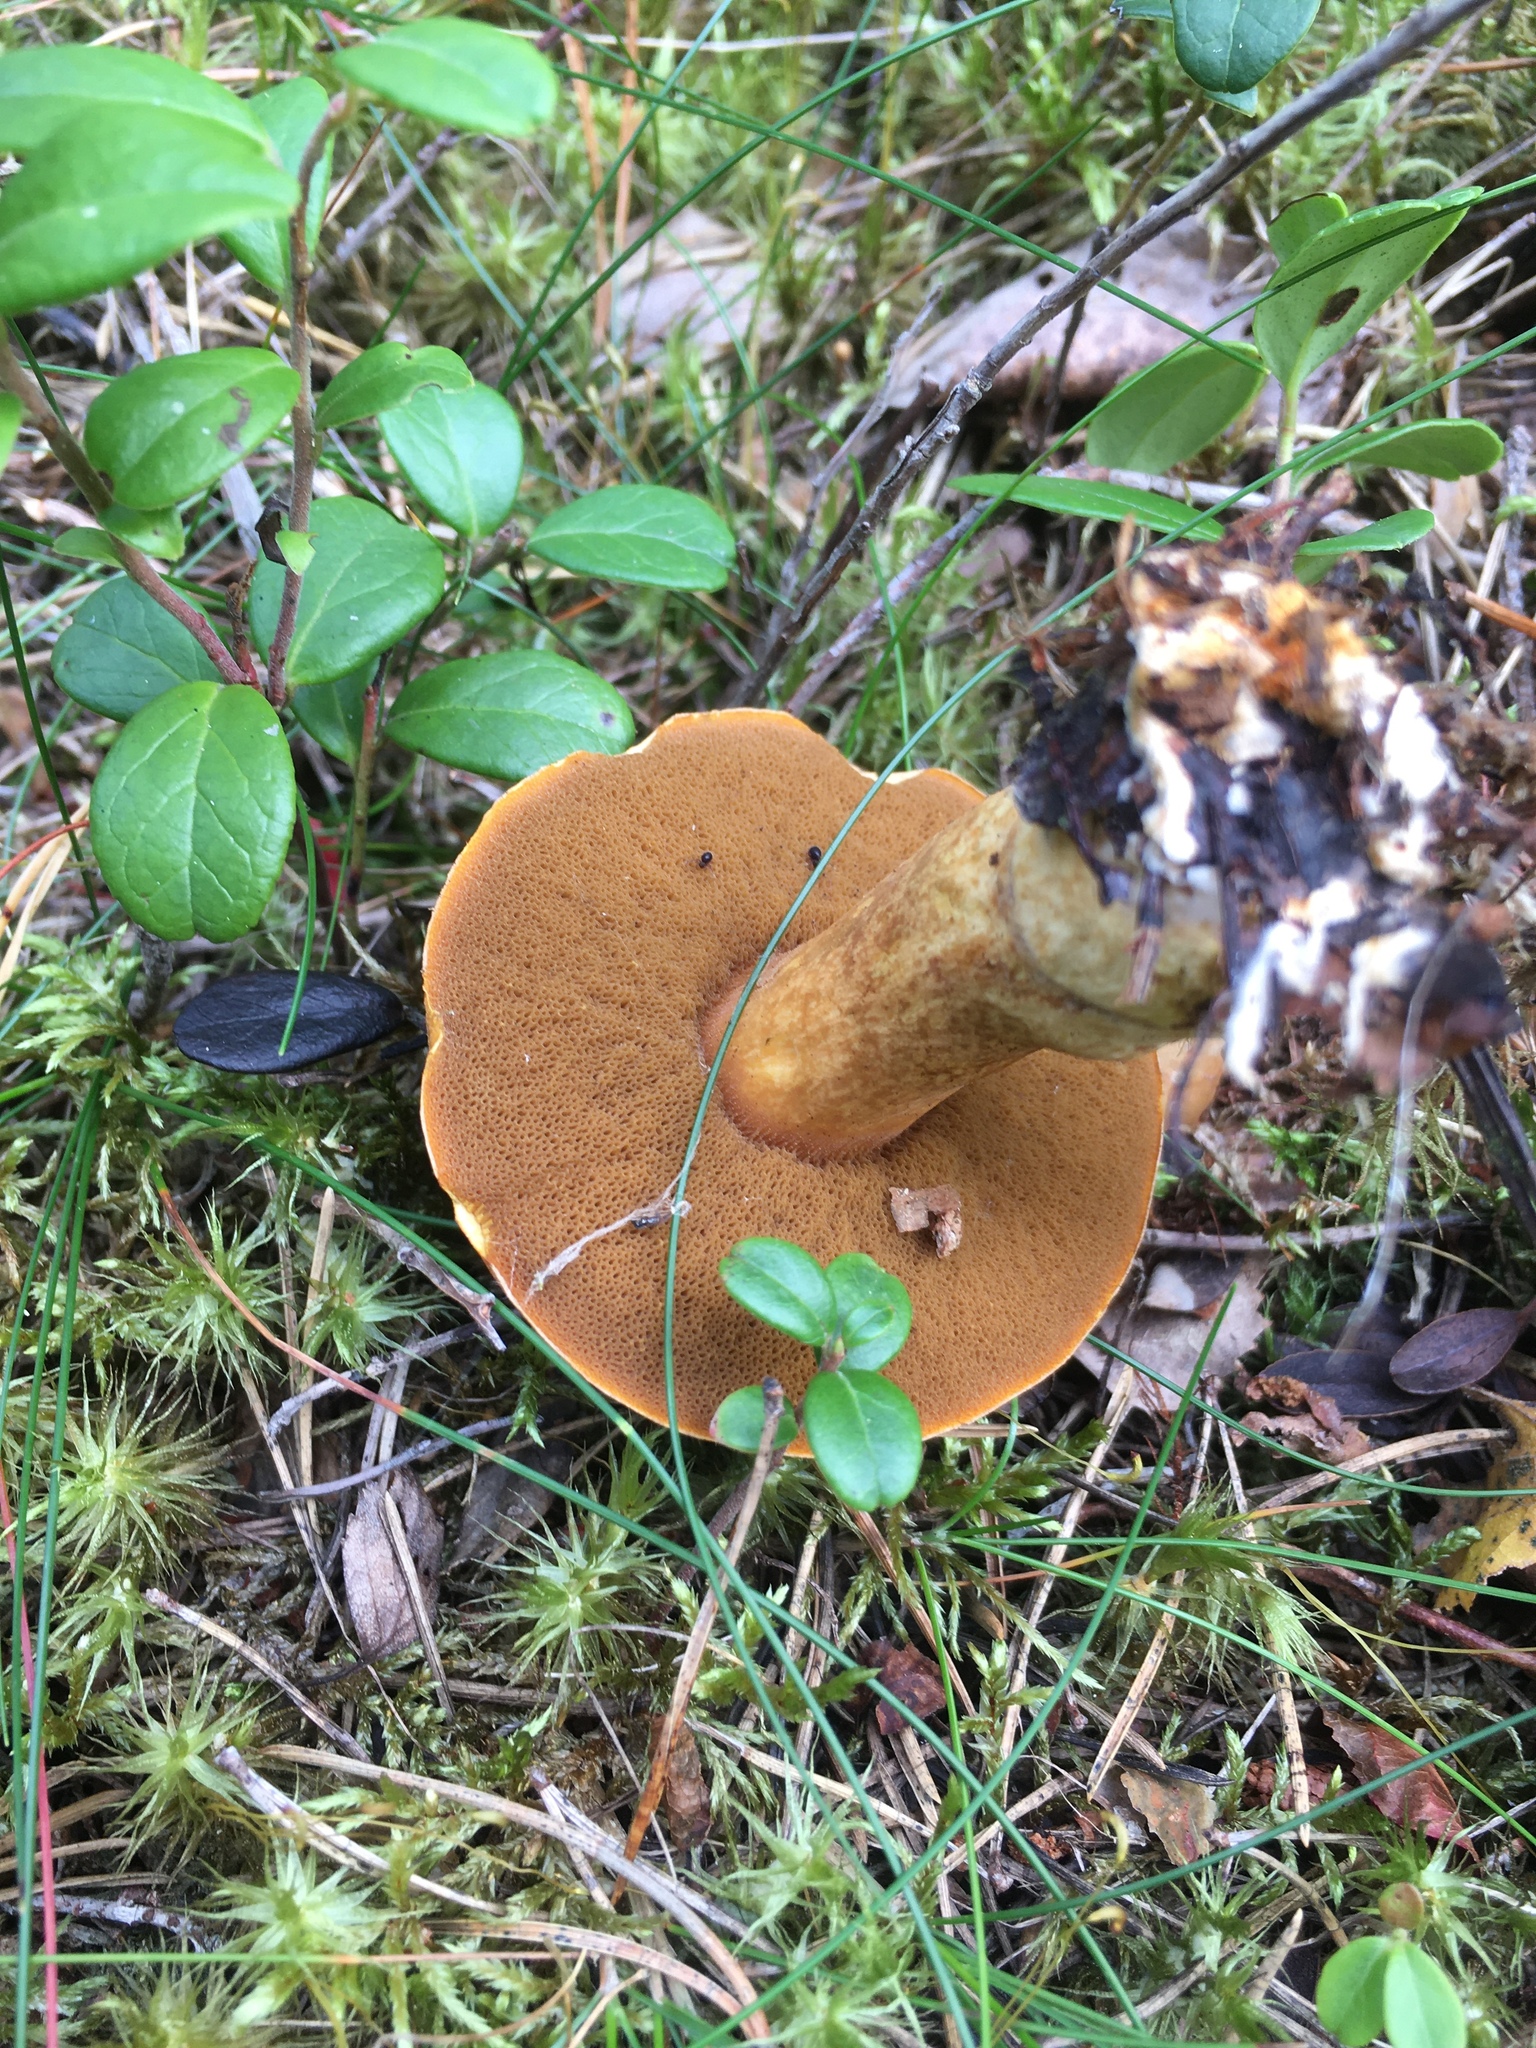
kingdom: Fungi
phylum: Basidiomycota
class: Agaricomycetes
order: Boletales
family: Suillaceae
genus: Suillus
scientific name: Suillus variegatus
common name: Velvet bolete
